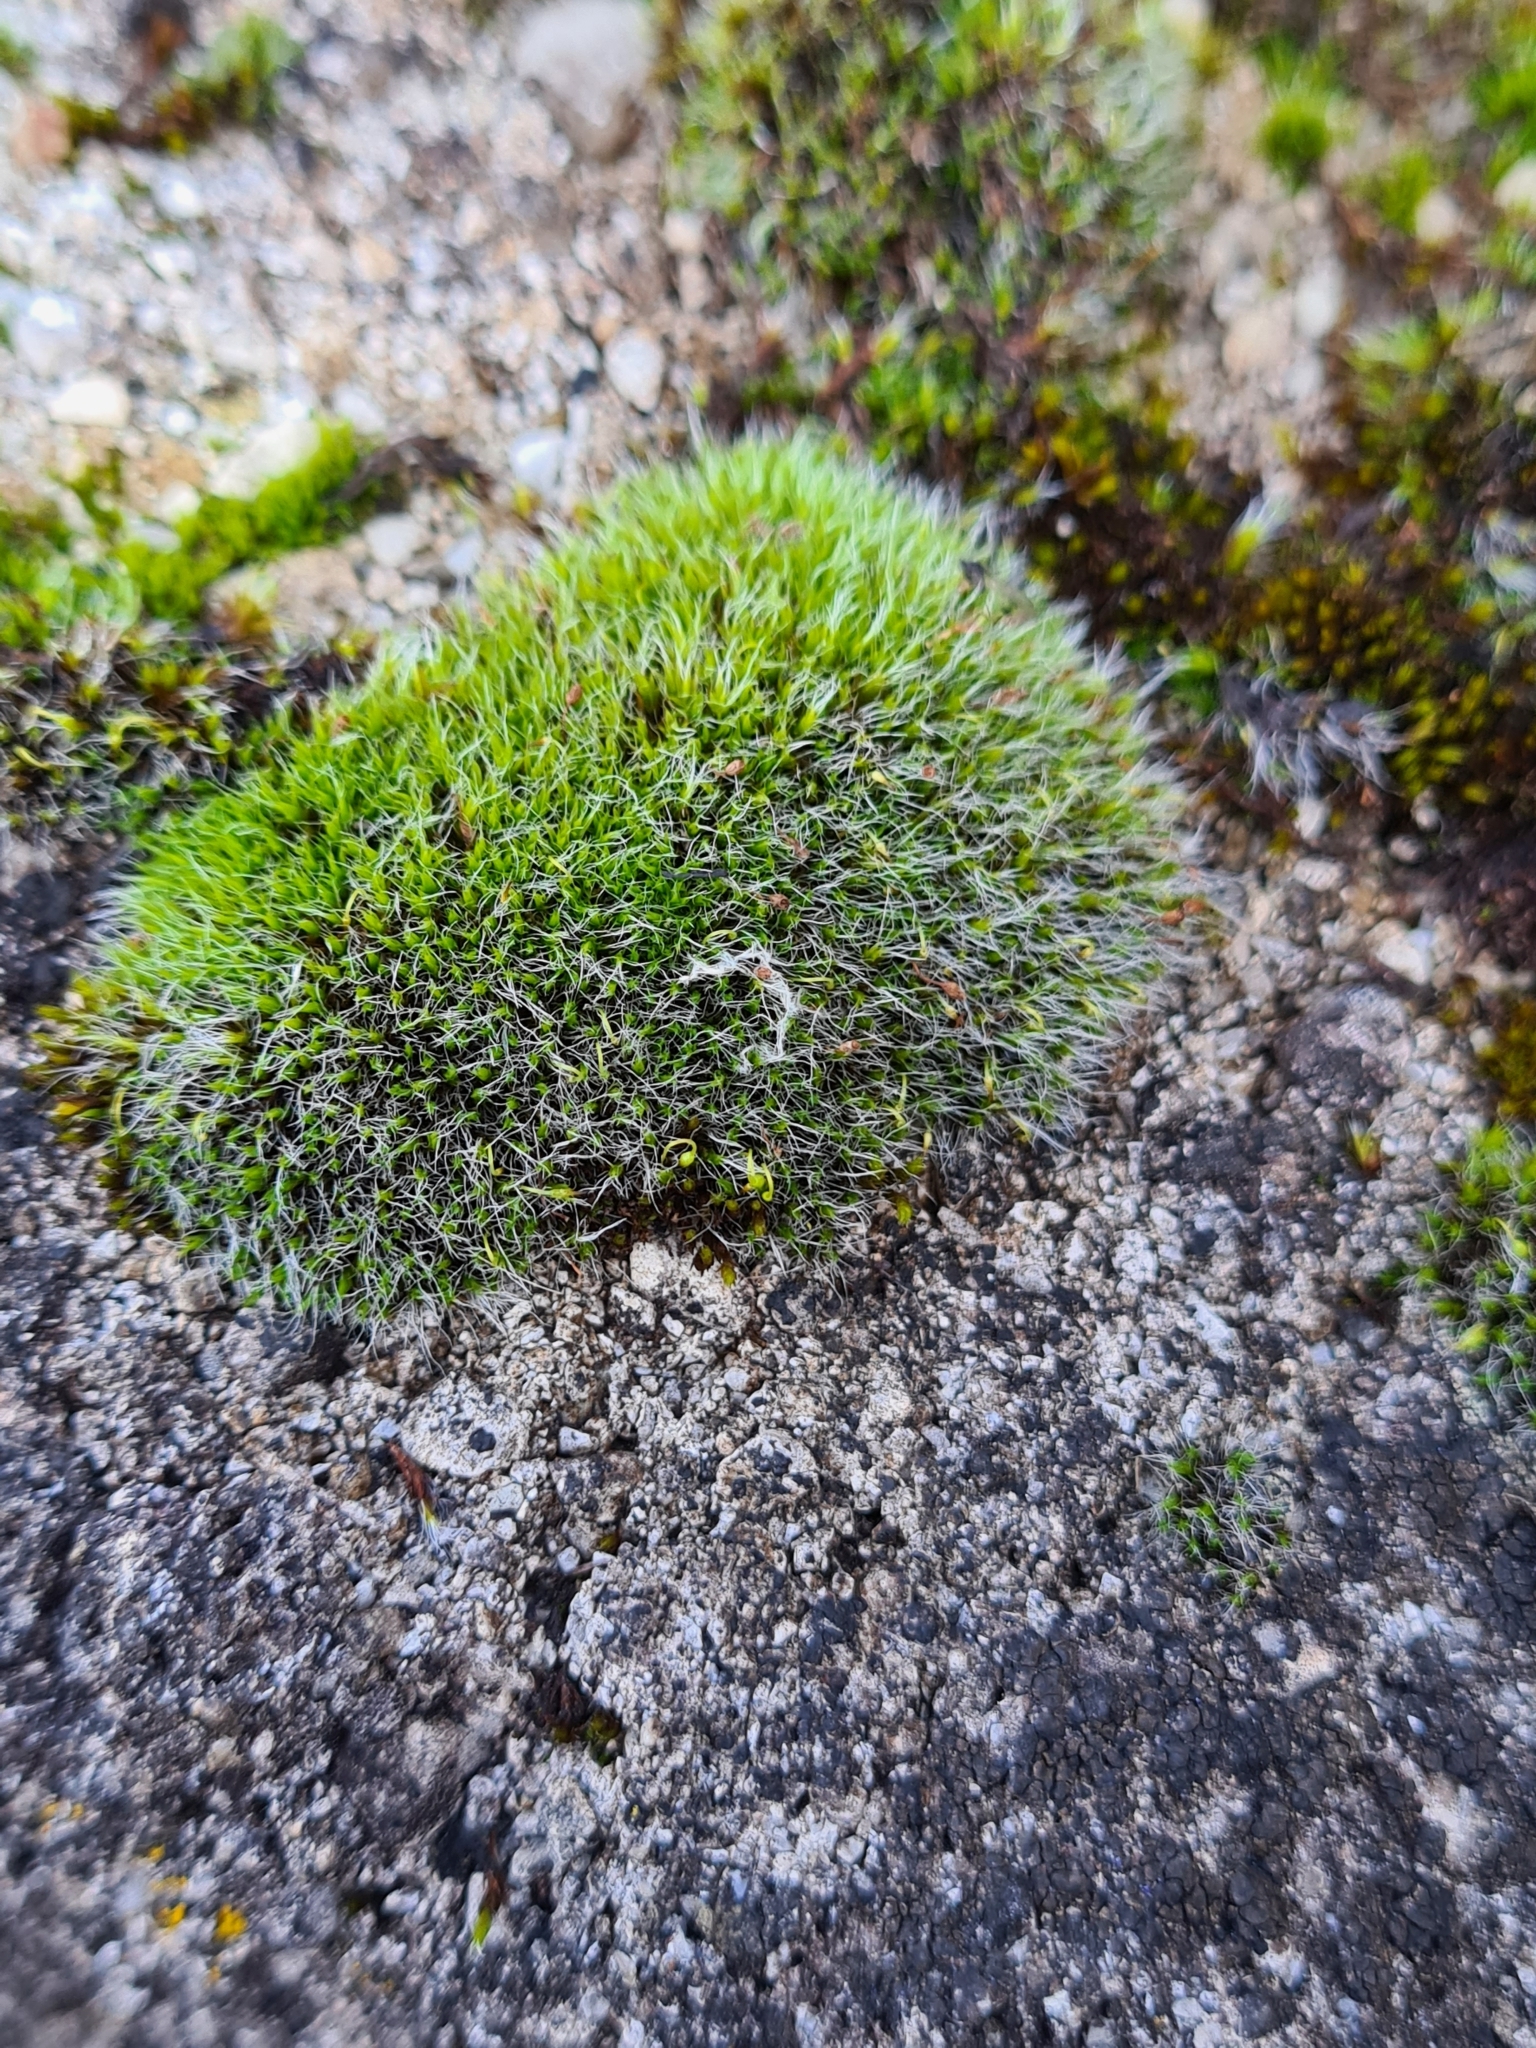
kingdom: Plantae
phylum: Bryophyta
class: Bryopsida
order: Grimmiales
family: Grimmiaceae
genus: Grimmia
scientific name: Grimmia pulvinata
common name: Grey-cushioned grimmia
